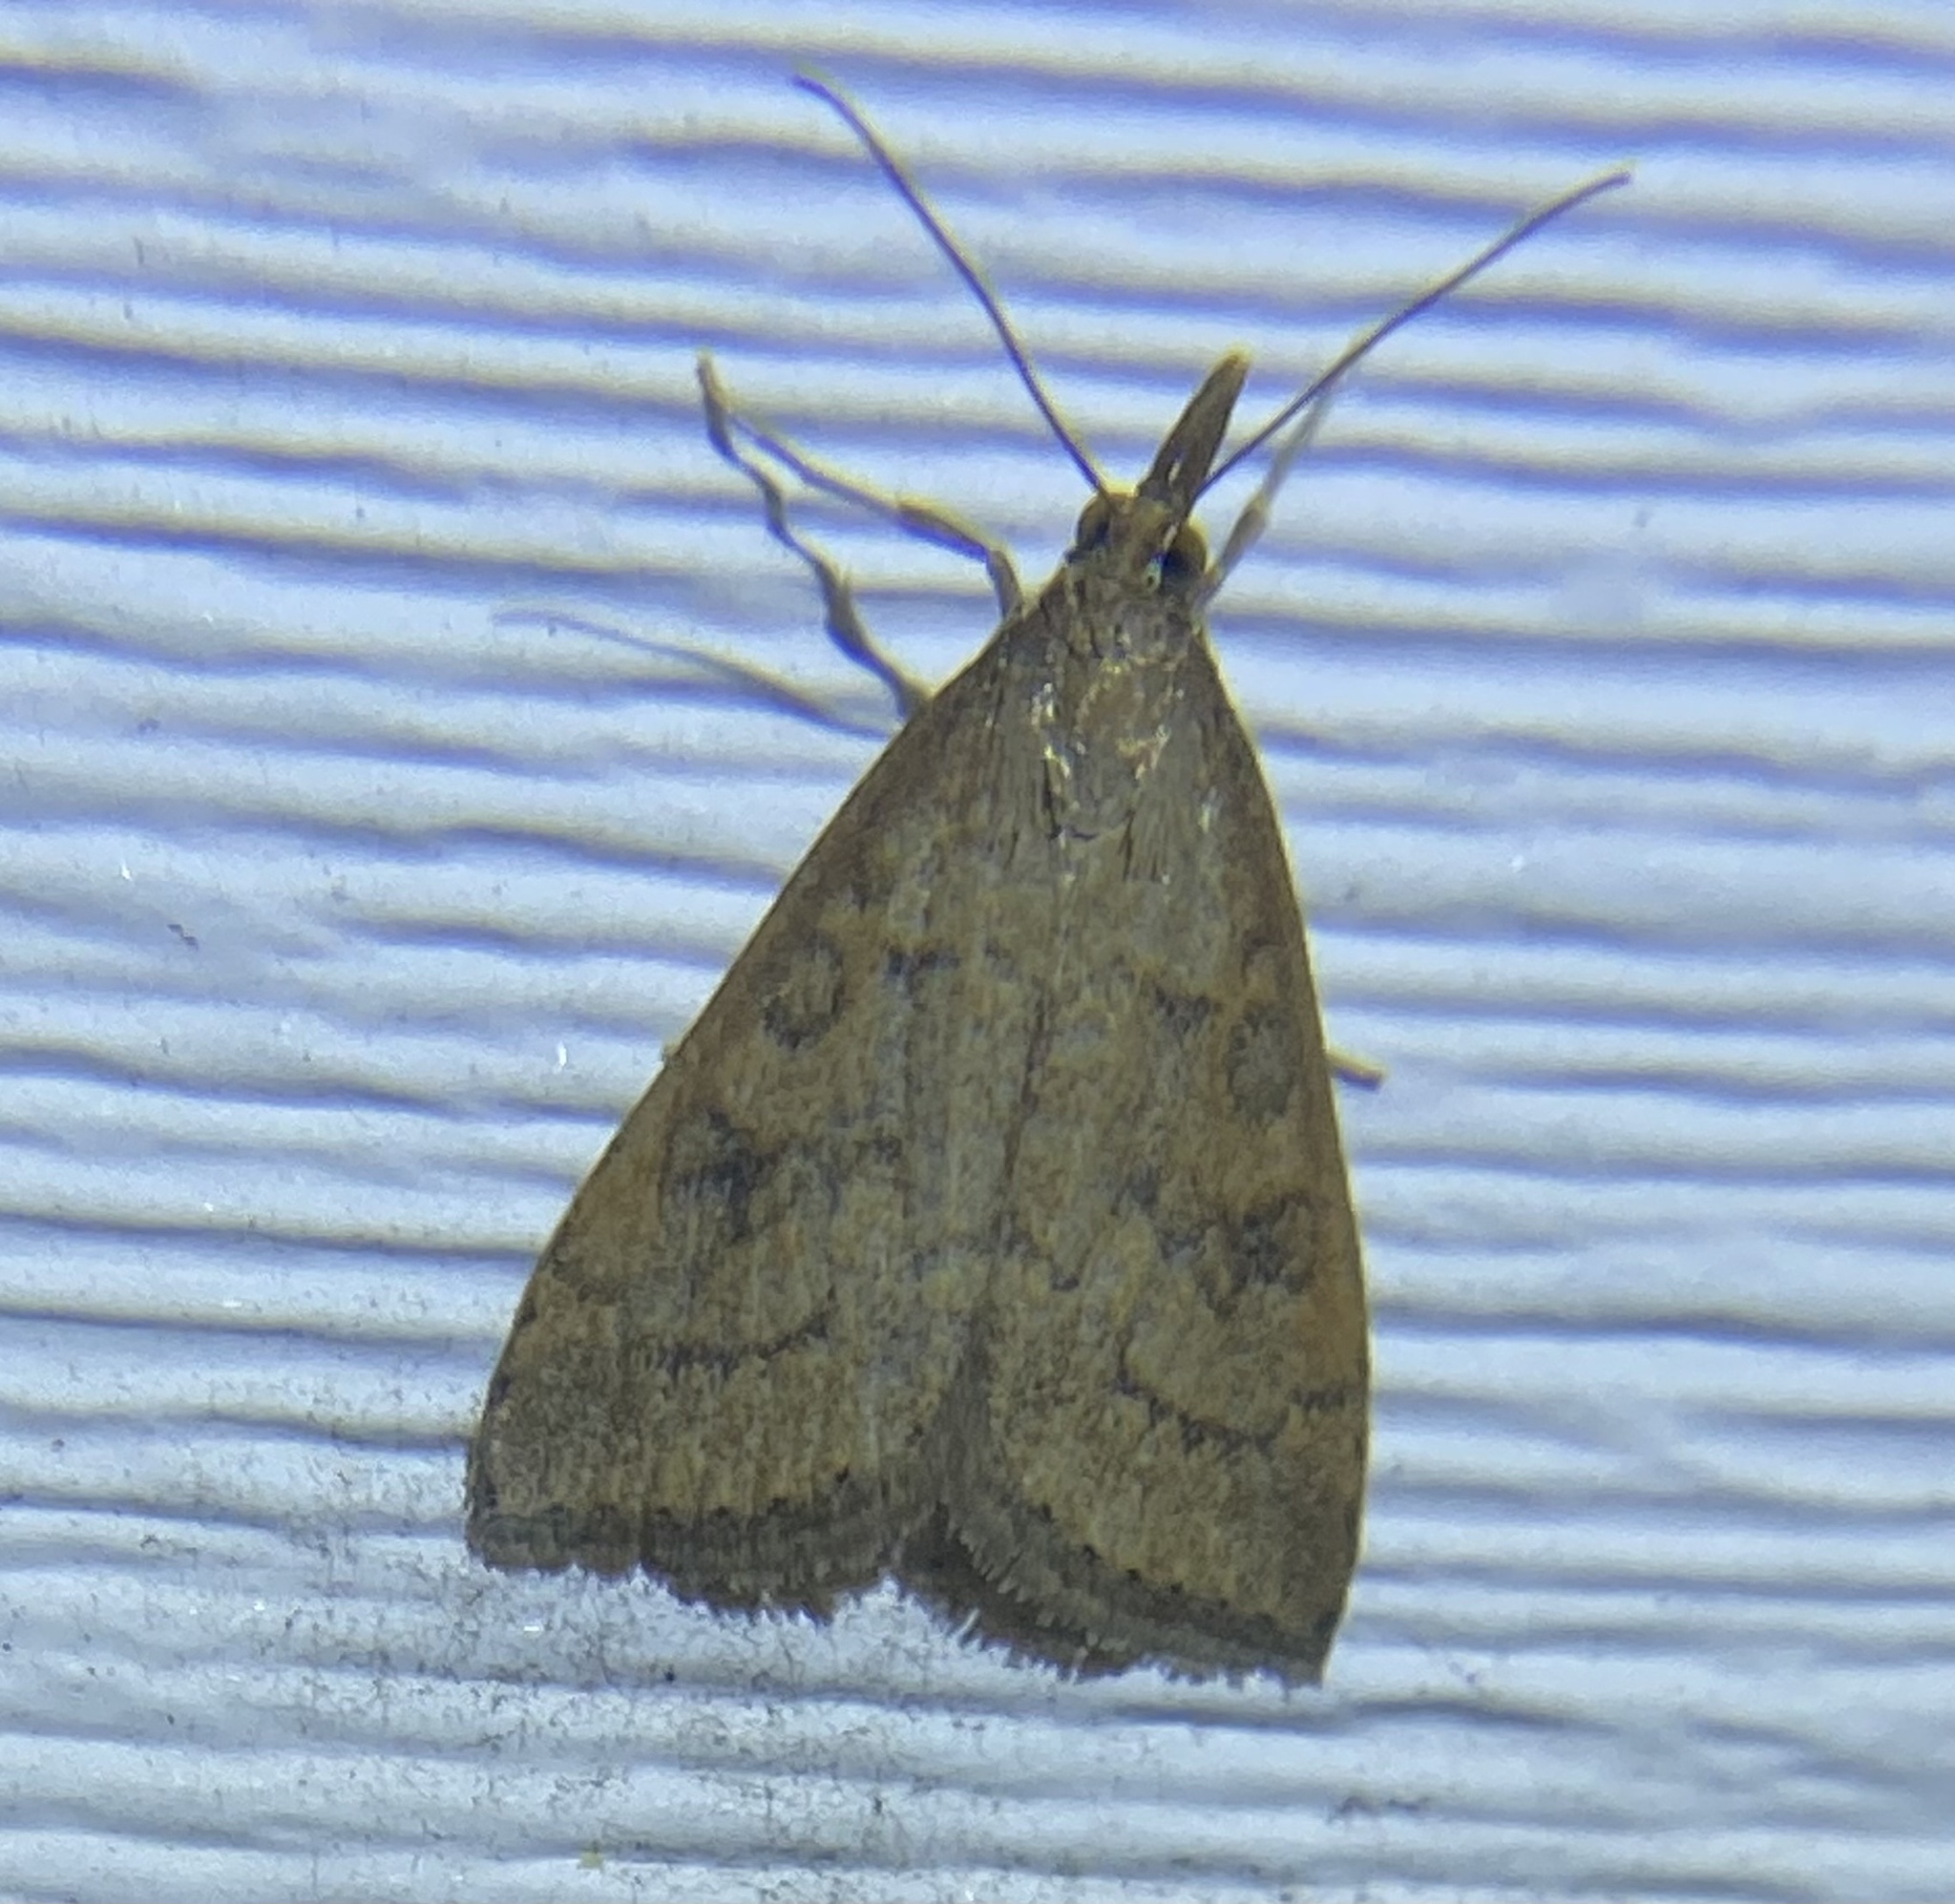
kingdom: Animalia
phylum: Arthropoda
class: Insecta
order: Lepidoptera
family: Crambidae
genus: Udea
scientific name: Udea rubigalis
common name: Celery leaftier moth
